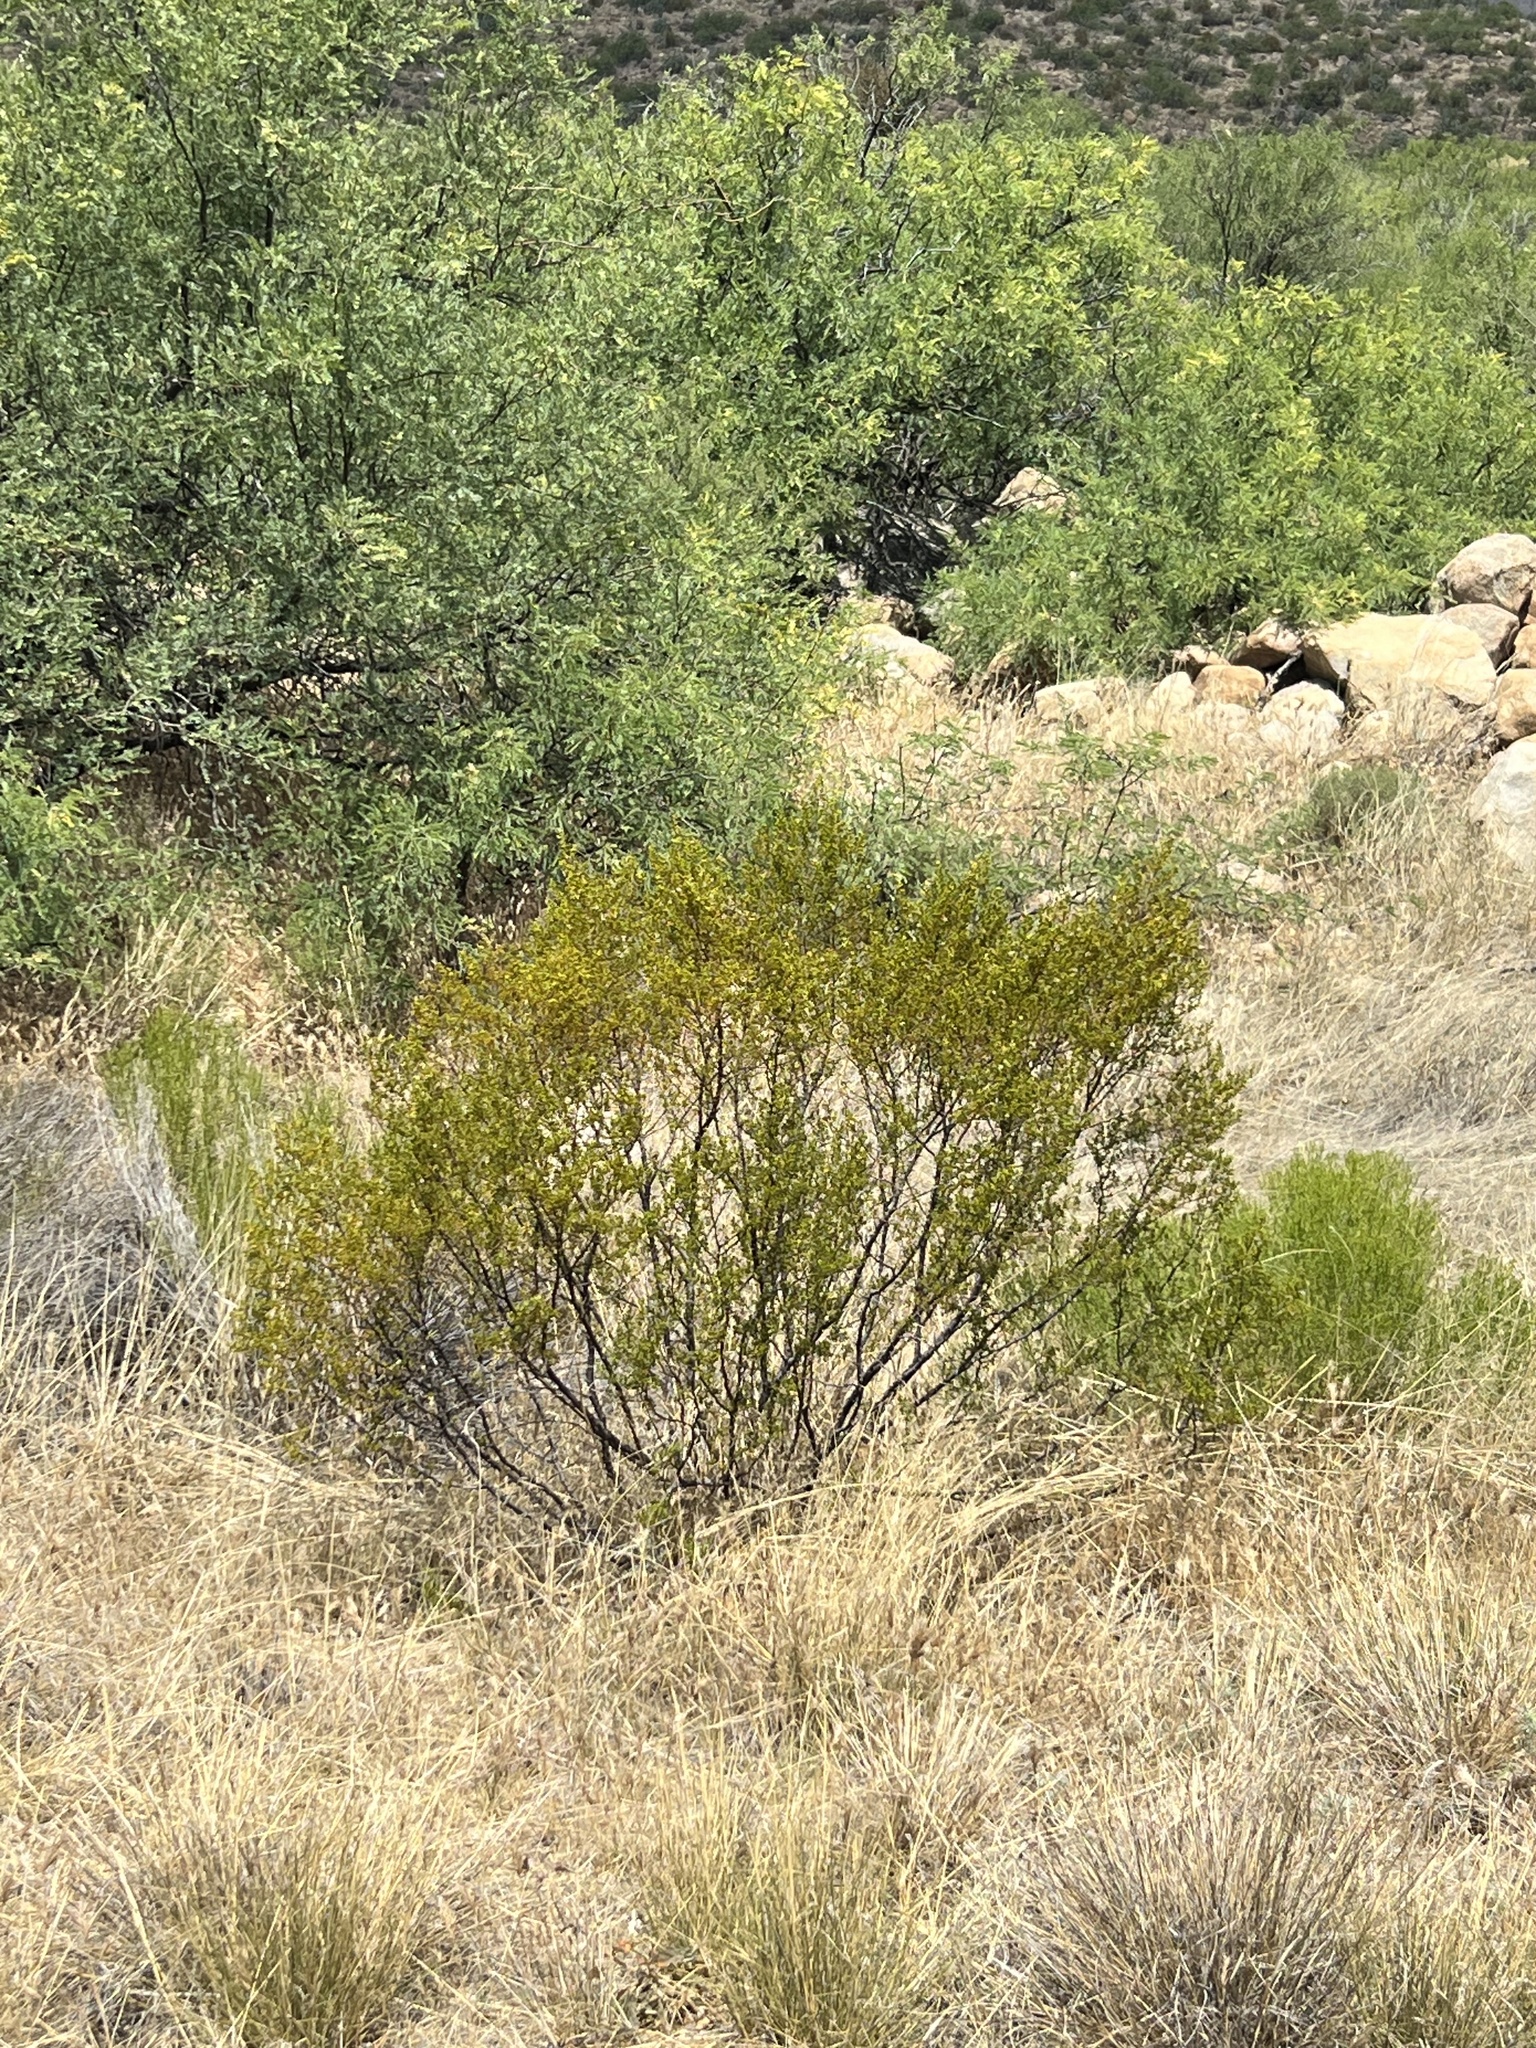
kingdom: Plantae
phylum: Tracheophyta
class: Magnoliopsida
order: Zygophyllales
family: Zygophyllaceae
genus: Larrea
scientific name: Larrea tridentata
